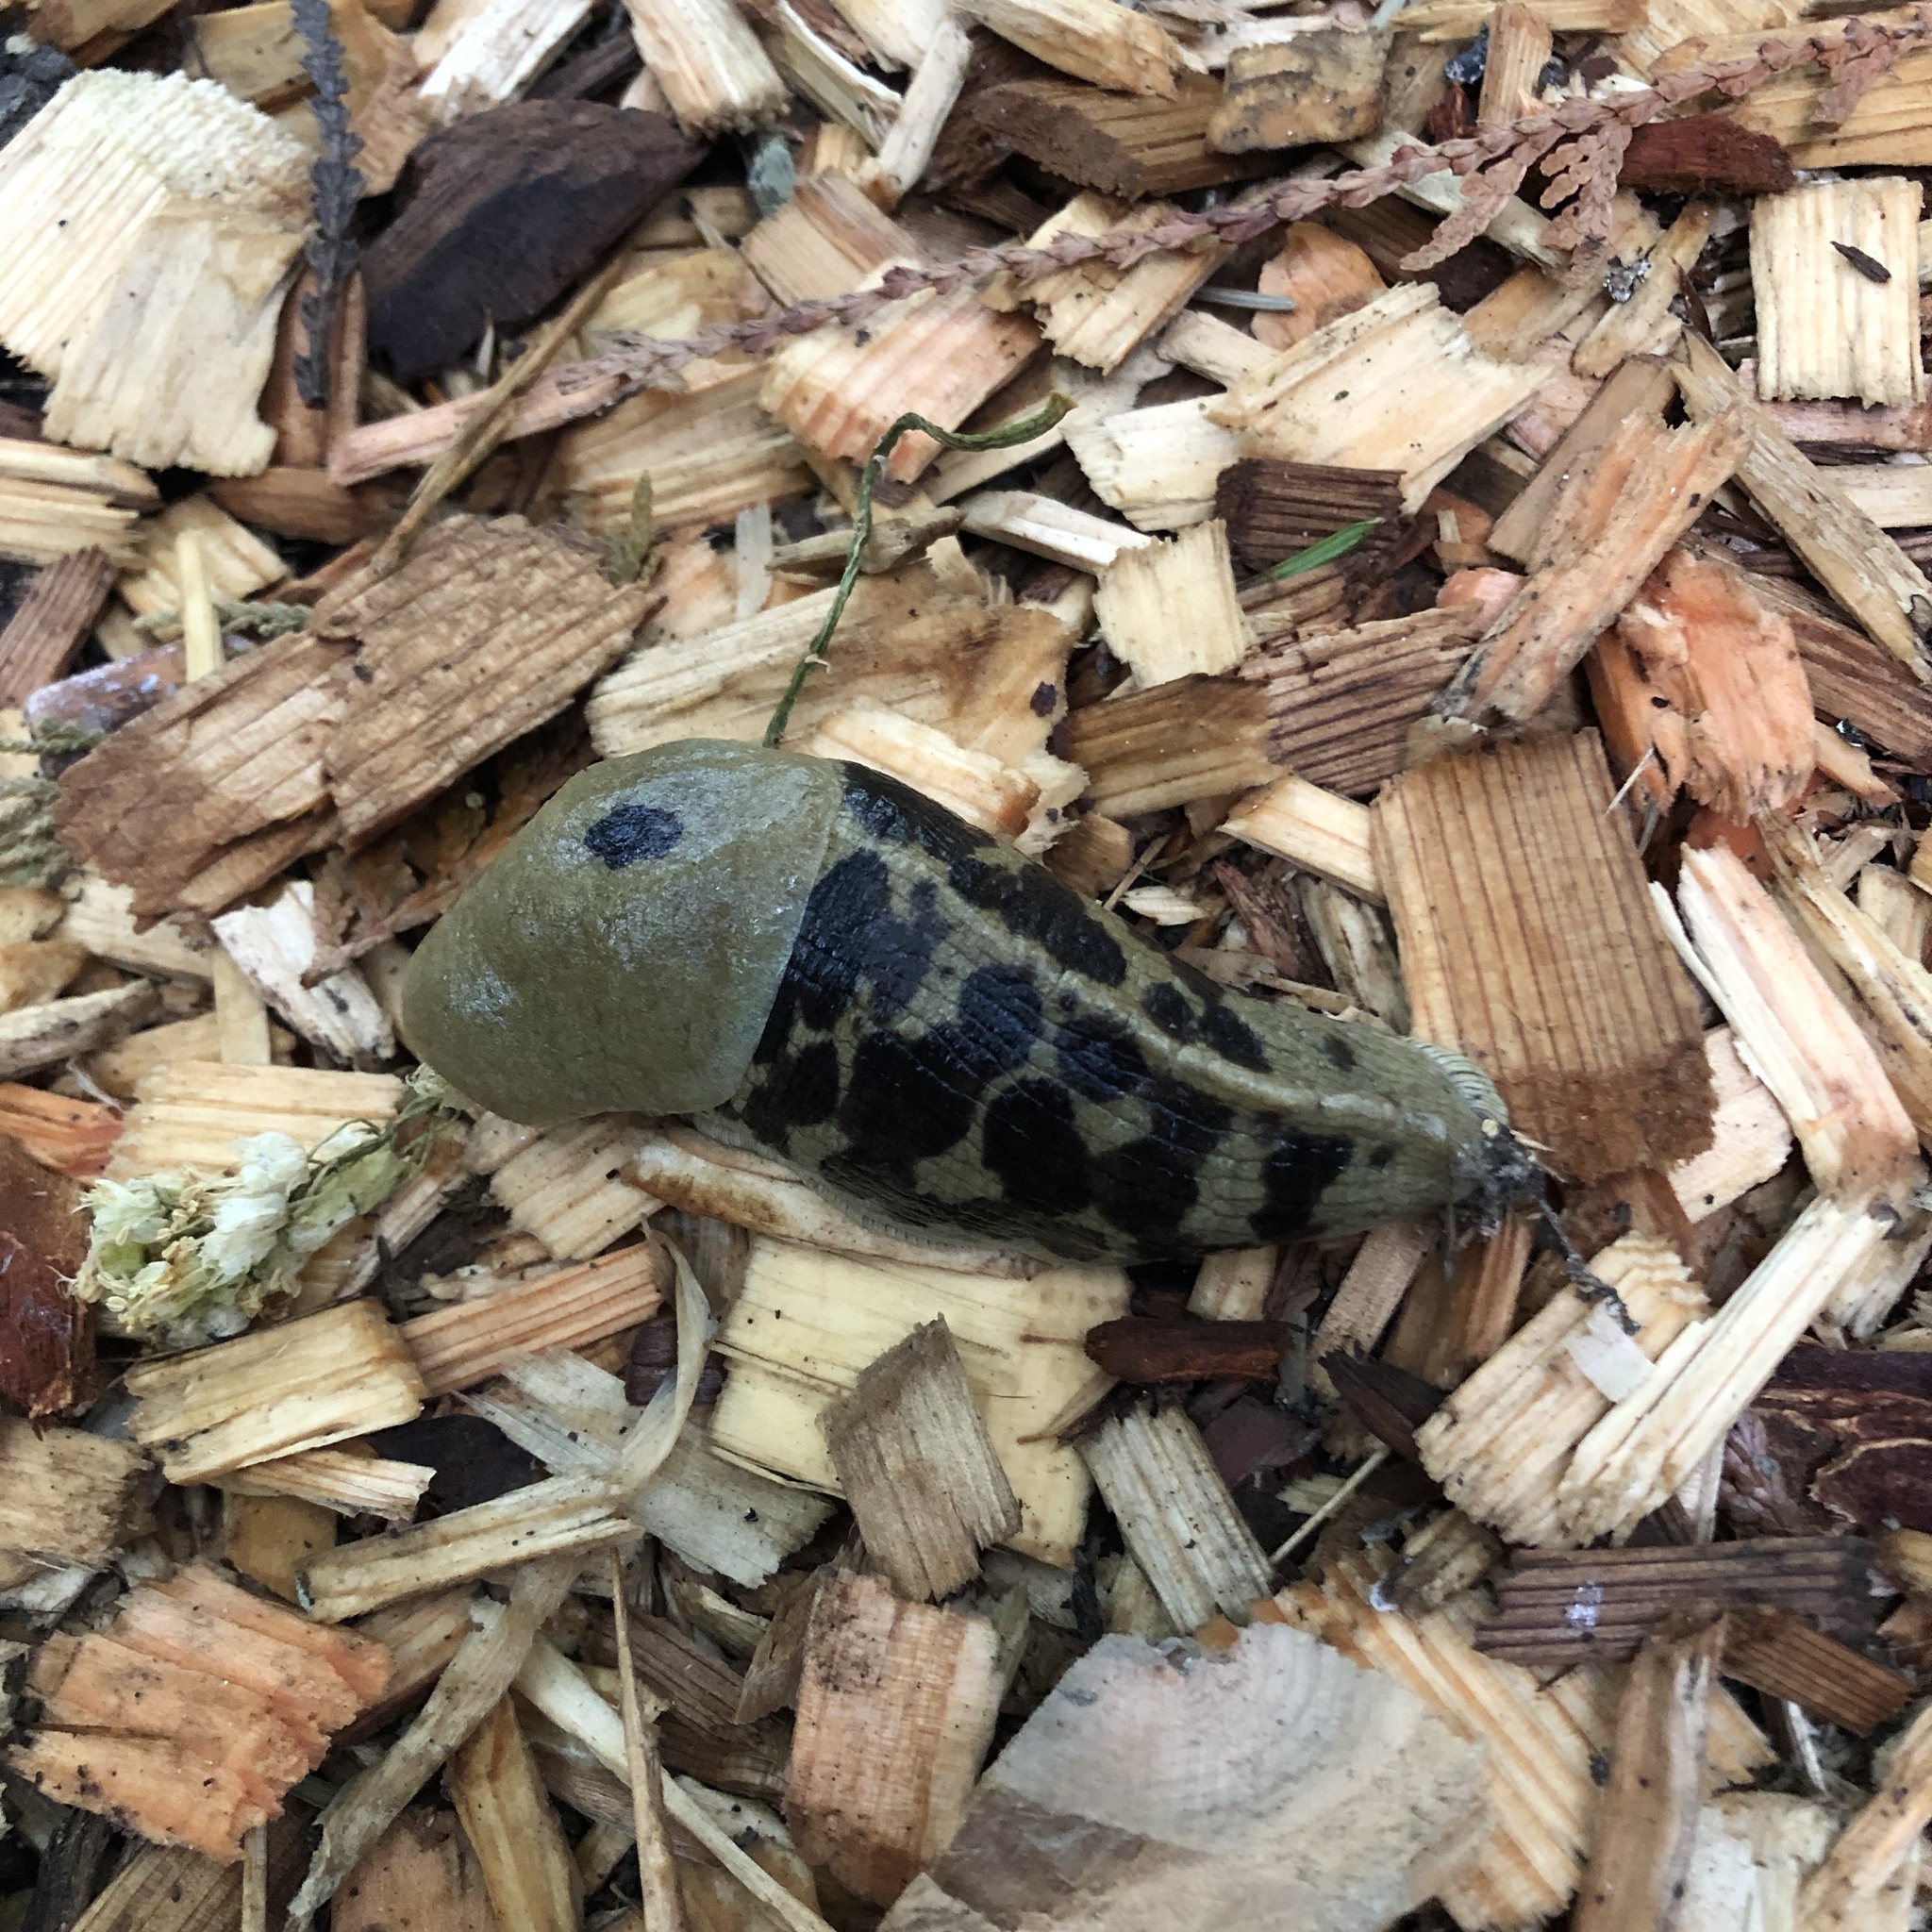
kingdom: Animalia
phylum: Mollusca
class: Gastropoda
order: Stylommatophora
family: Ariolimacidae
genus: Ariolimax
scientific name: Ariolimax columbianus
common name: Pacific banana slug
